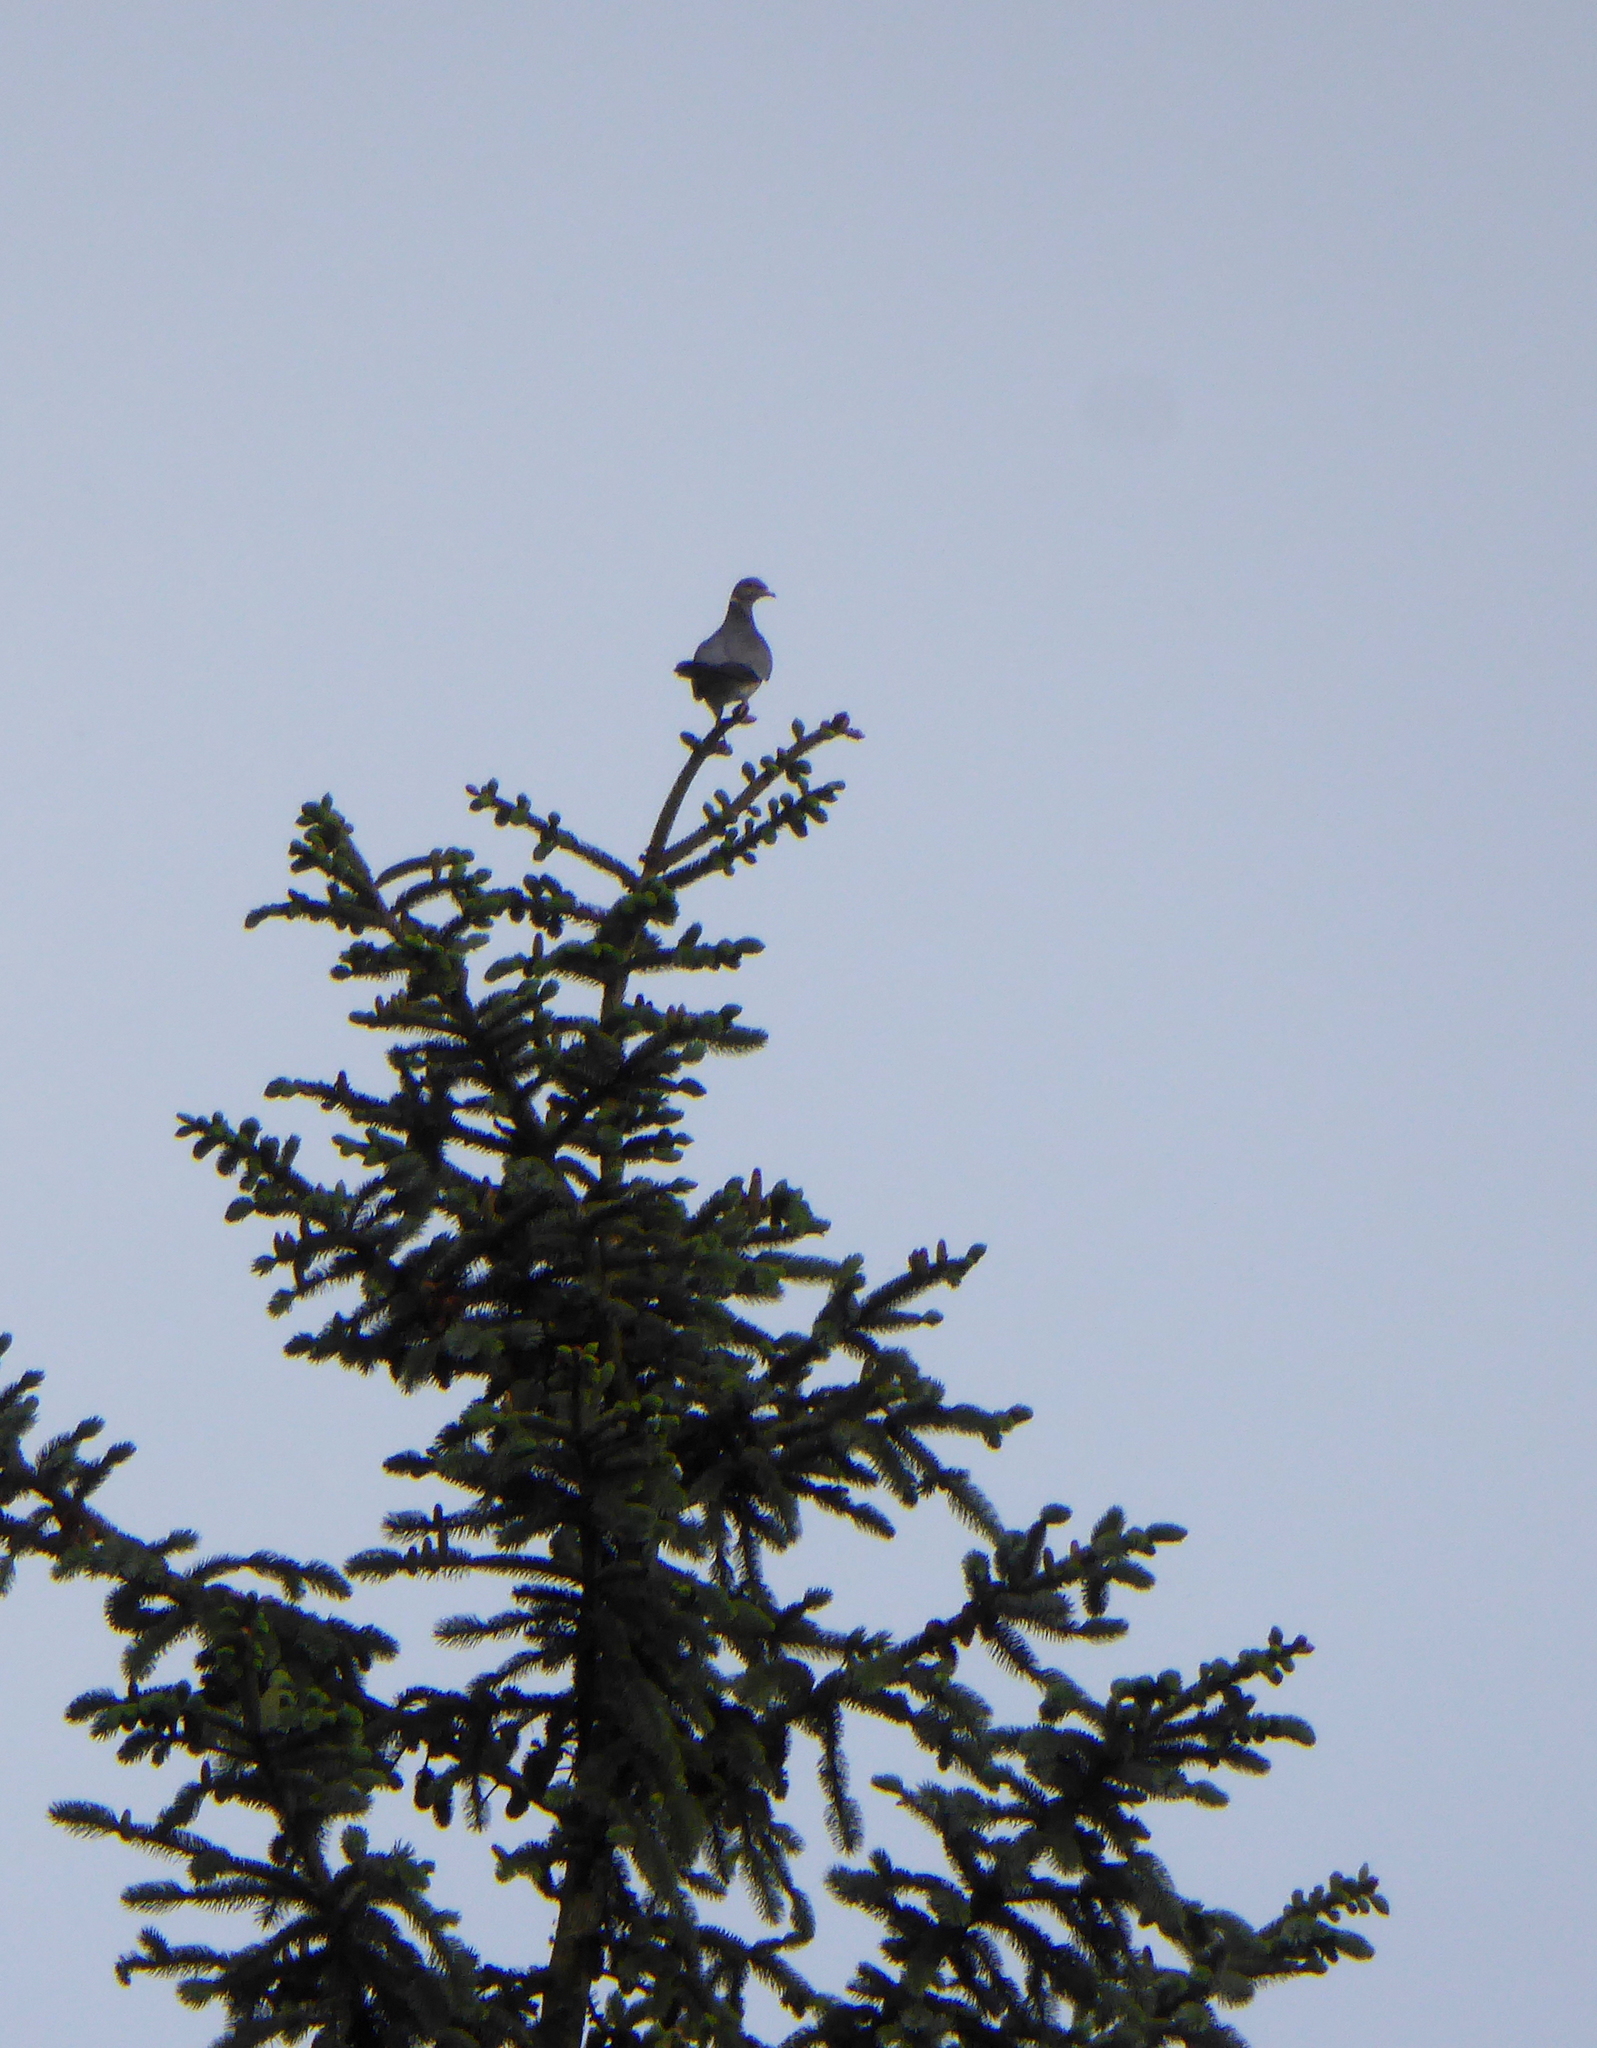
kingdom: Animalia
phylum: Chordata
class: Aves
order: Columbiformes
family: Columbidae
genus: Patagioenas
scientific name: Patagioenas fasciata
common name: Band-tailed pigeon
